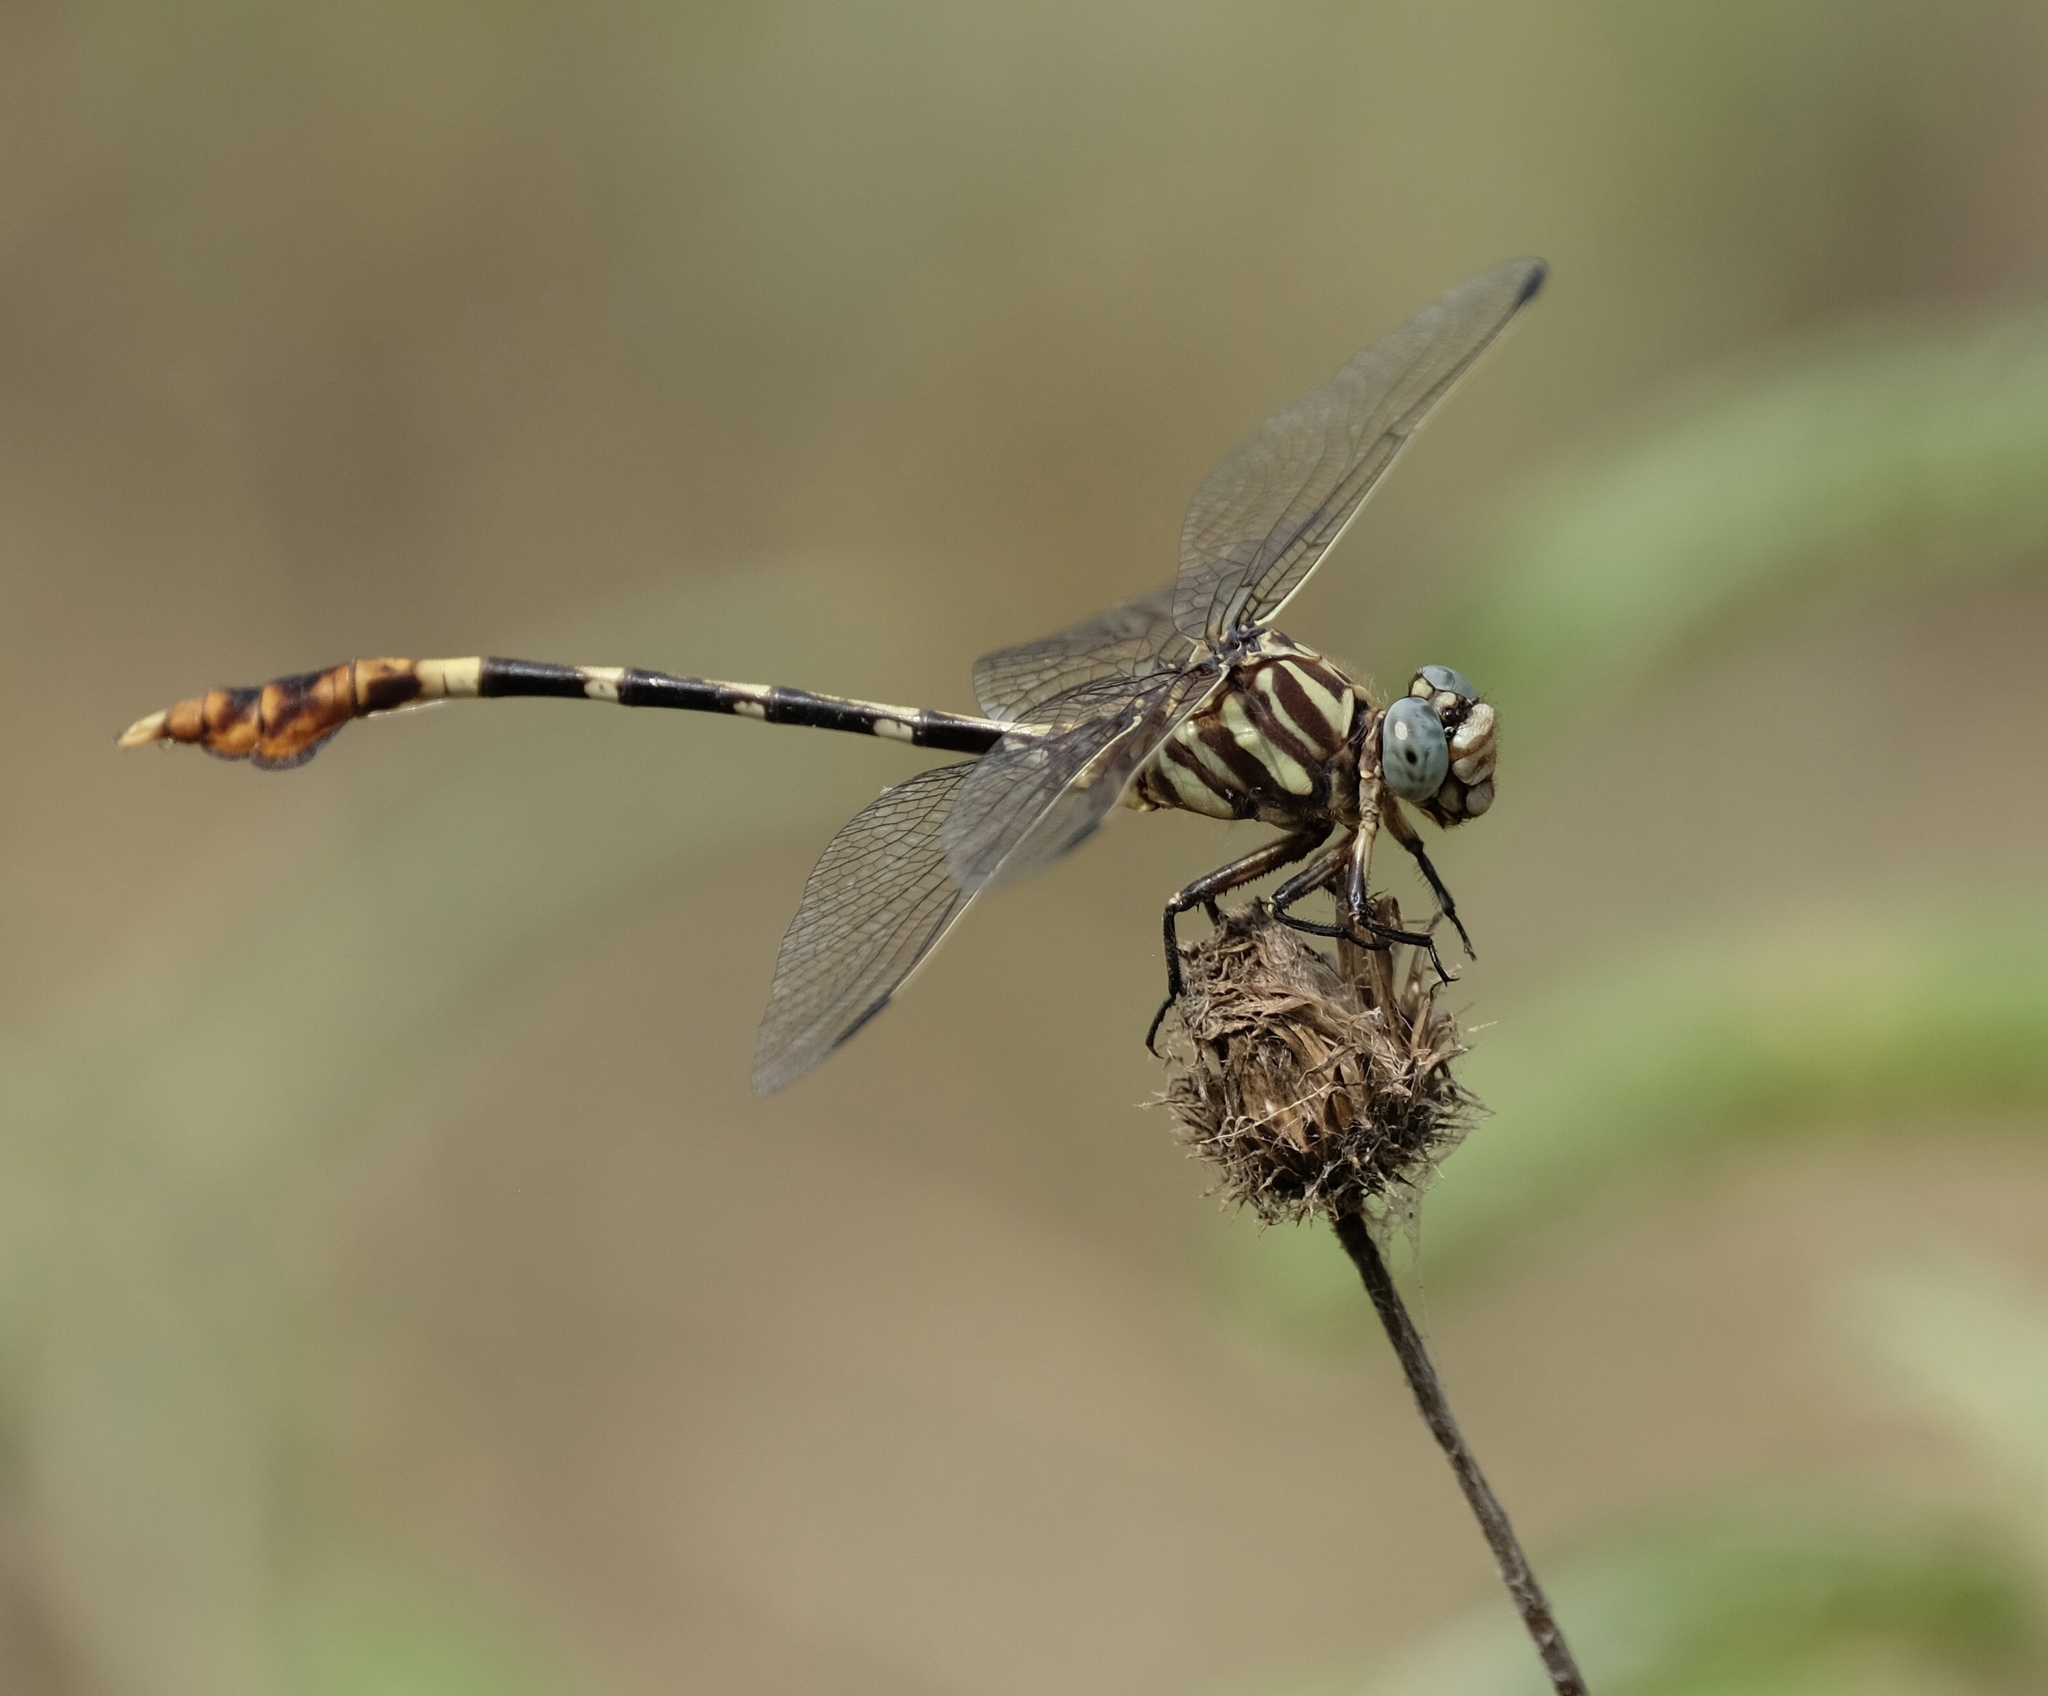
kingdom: Animalia
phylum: Arthropoda
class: Insecta
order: Odonata
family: Gomphidae
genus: Phyllogomphoides
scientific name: Phyllogomphoides albrighti
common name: Five-striped leaftail
